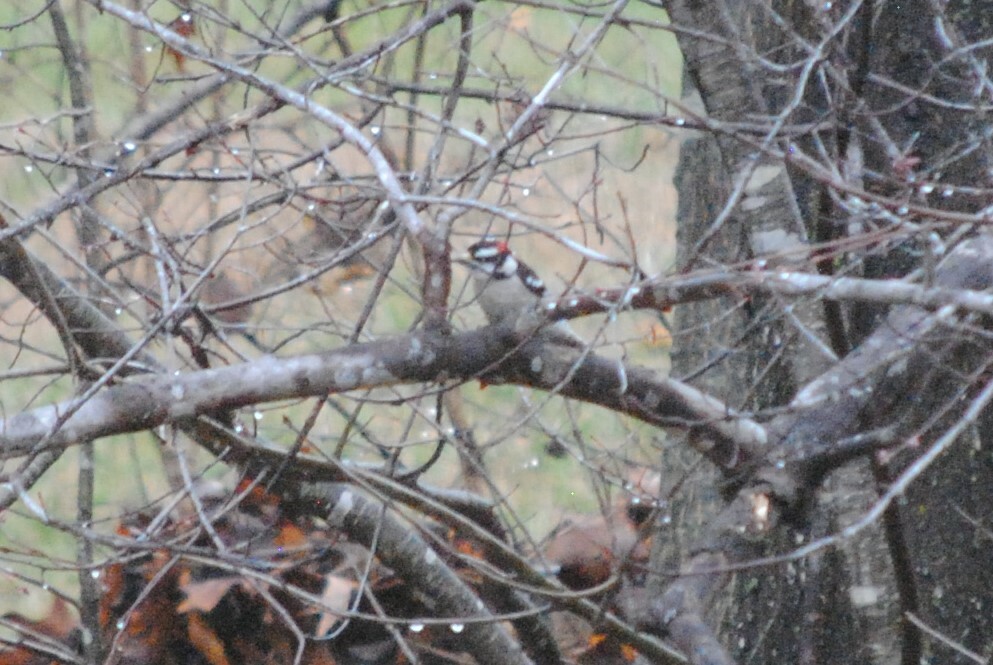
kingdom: Animalia
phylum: Chordata
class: Aves
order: Piciformes
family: Picidae
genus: Dryobates
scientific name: Dryobates pubescens
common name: Downy woodpecker
